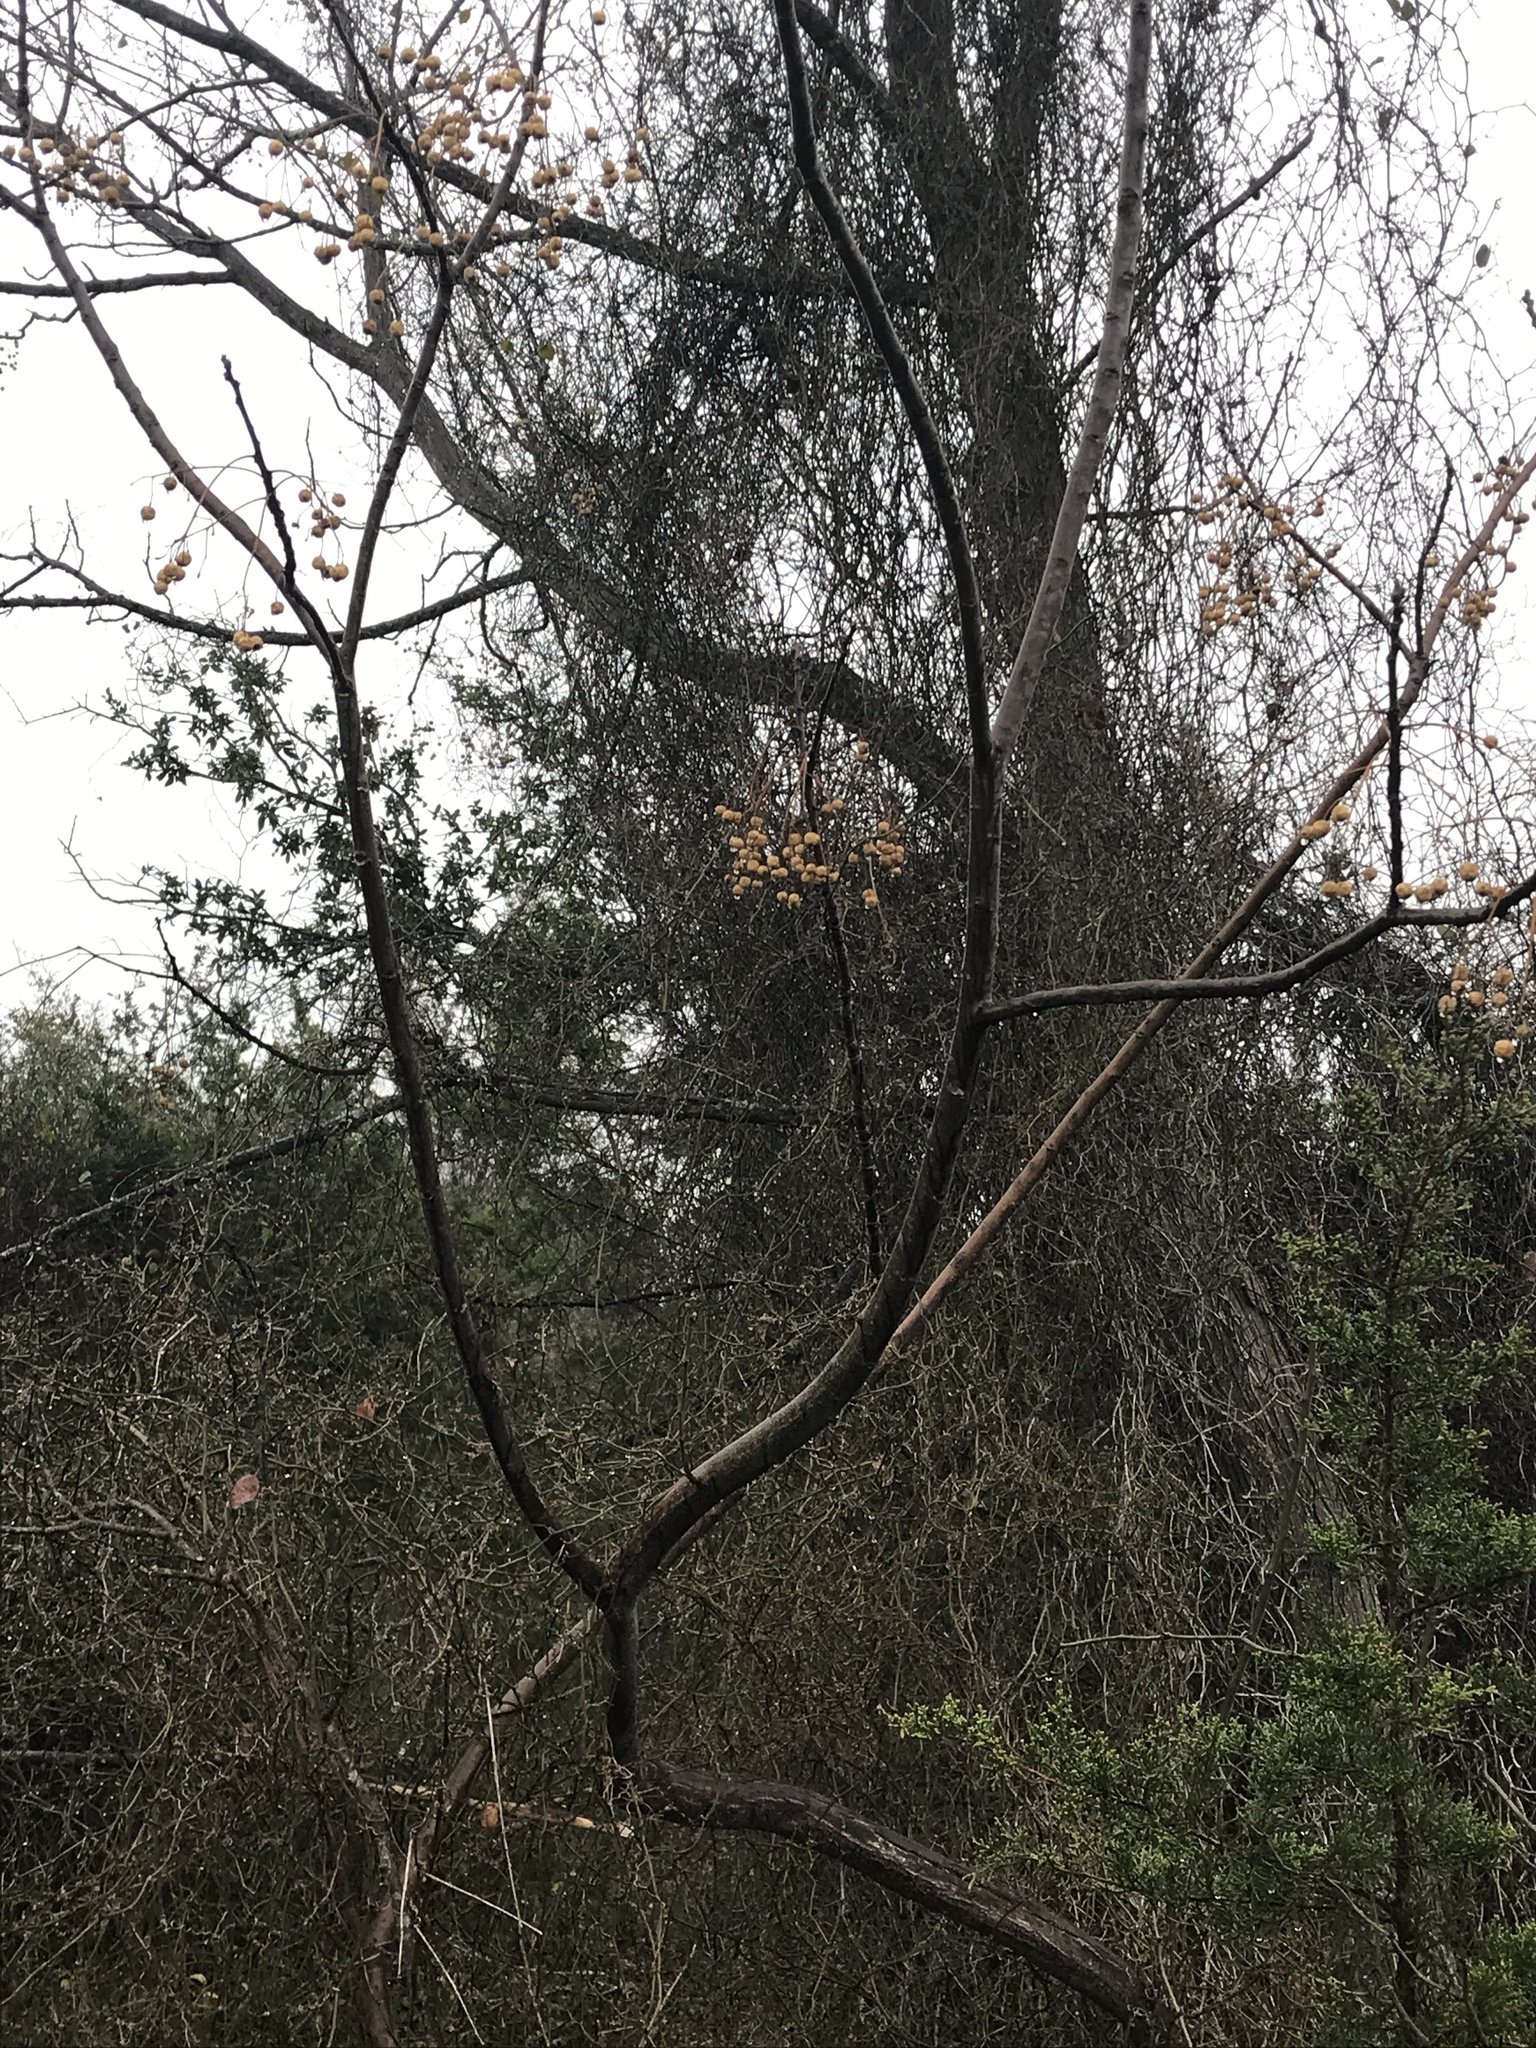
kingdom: Plantae
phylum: Tracheophyta
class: Magnoliopsida
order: Sapindales
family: Meliaceae
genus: Melia
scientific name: Melia azedarach
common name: Chinaberrytree
